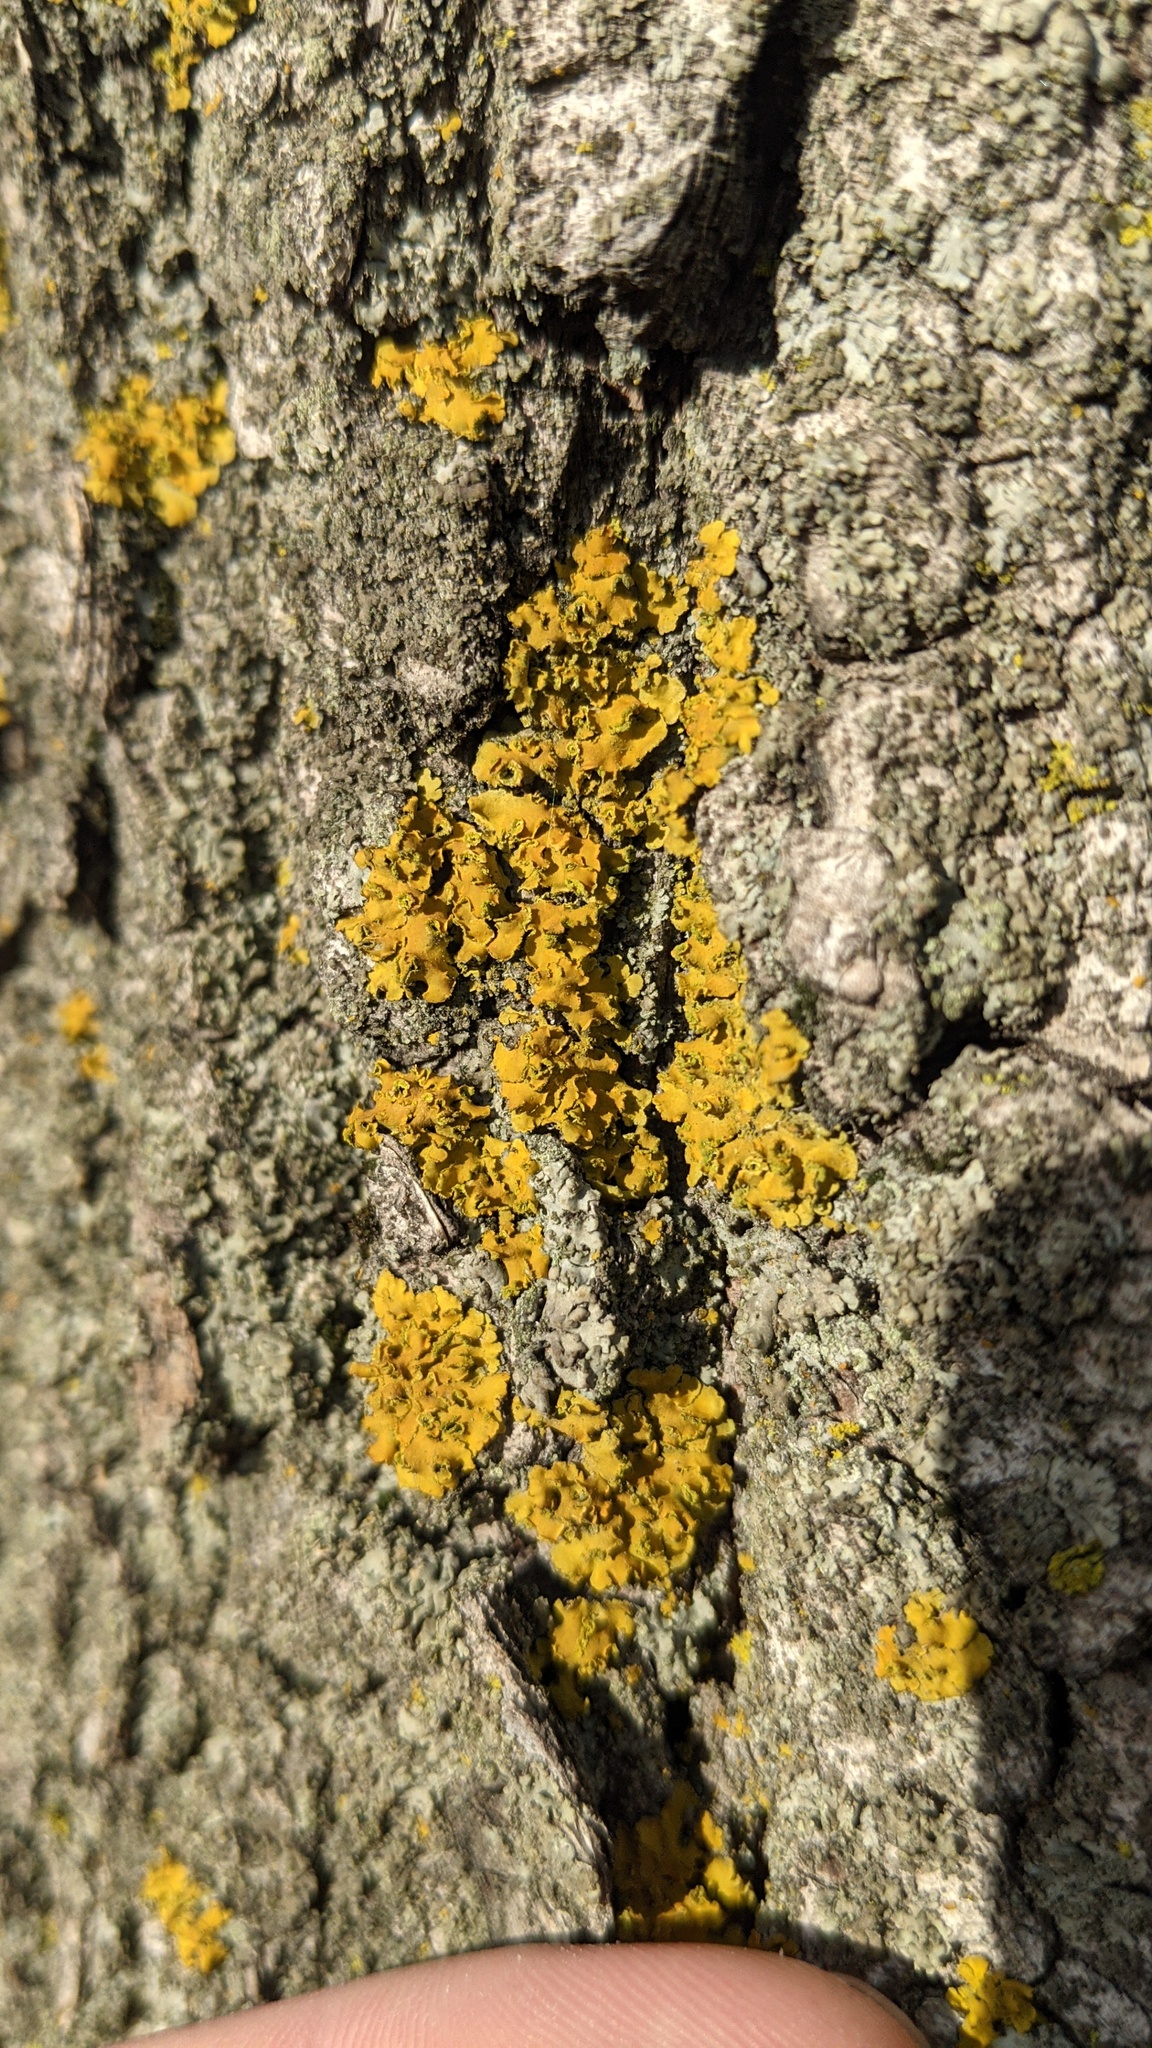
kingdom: Fungi
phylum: Ascomycota
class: Lecanoromycetes
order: Teloschistales
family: Teloschistaceae
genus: Oxneria
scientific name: Oxneria fallax
